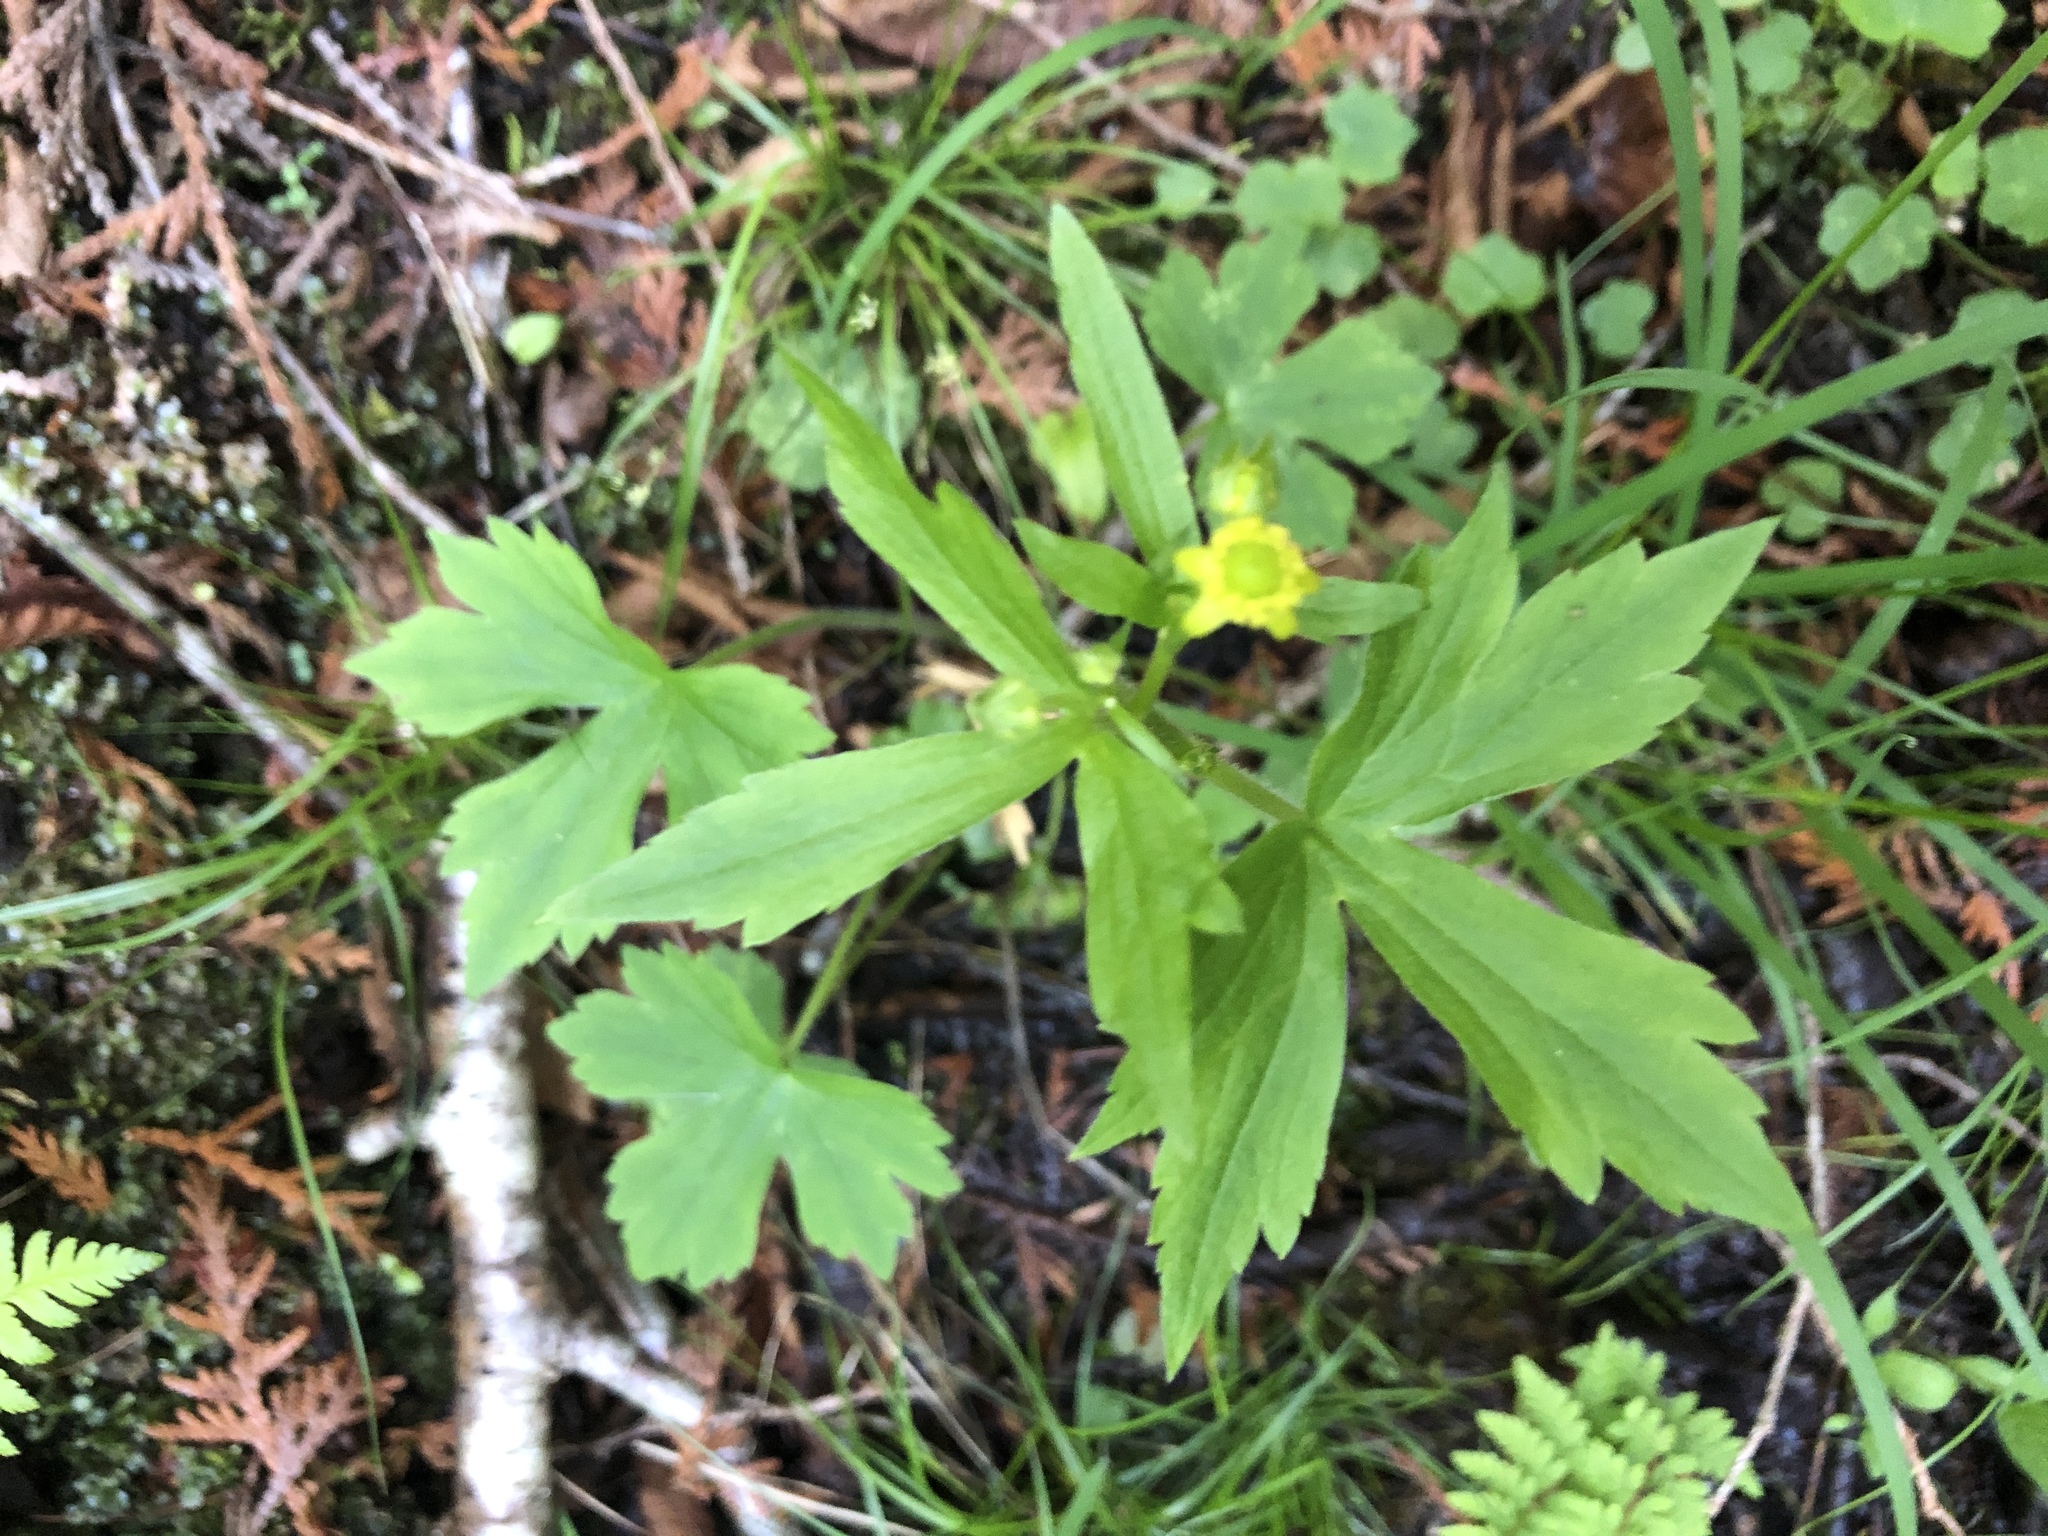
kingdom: Plantae
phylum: Tracheophyta
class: Magnoliopsida
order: Ranunculales
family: Ranunculaceae
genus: Ranunculus
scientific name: Ranunculus recurvatus
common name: Blisterwort
